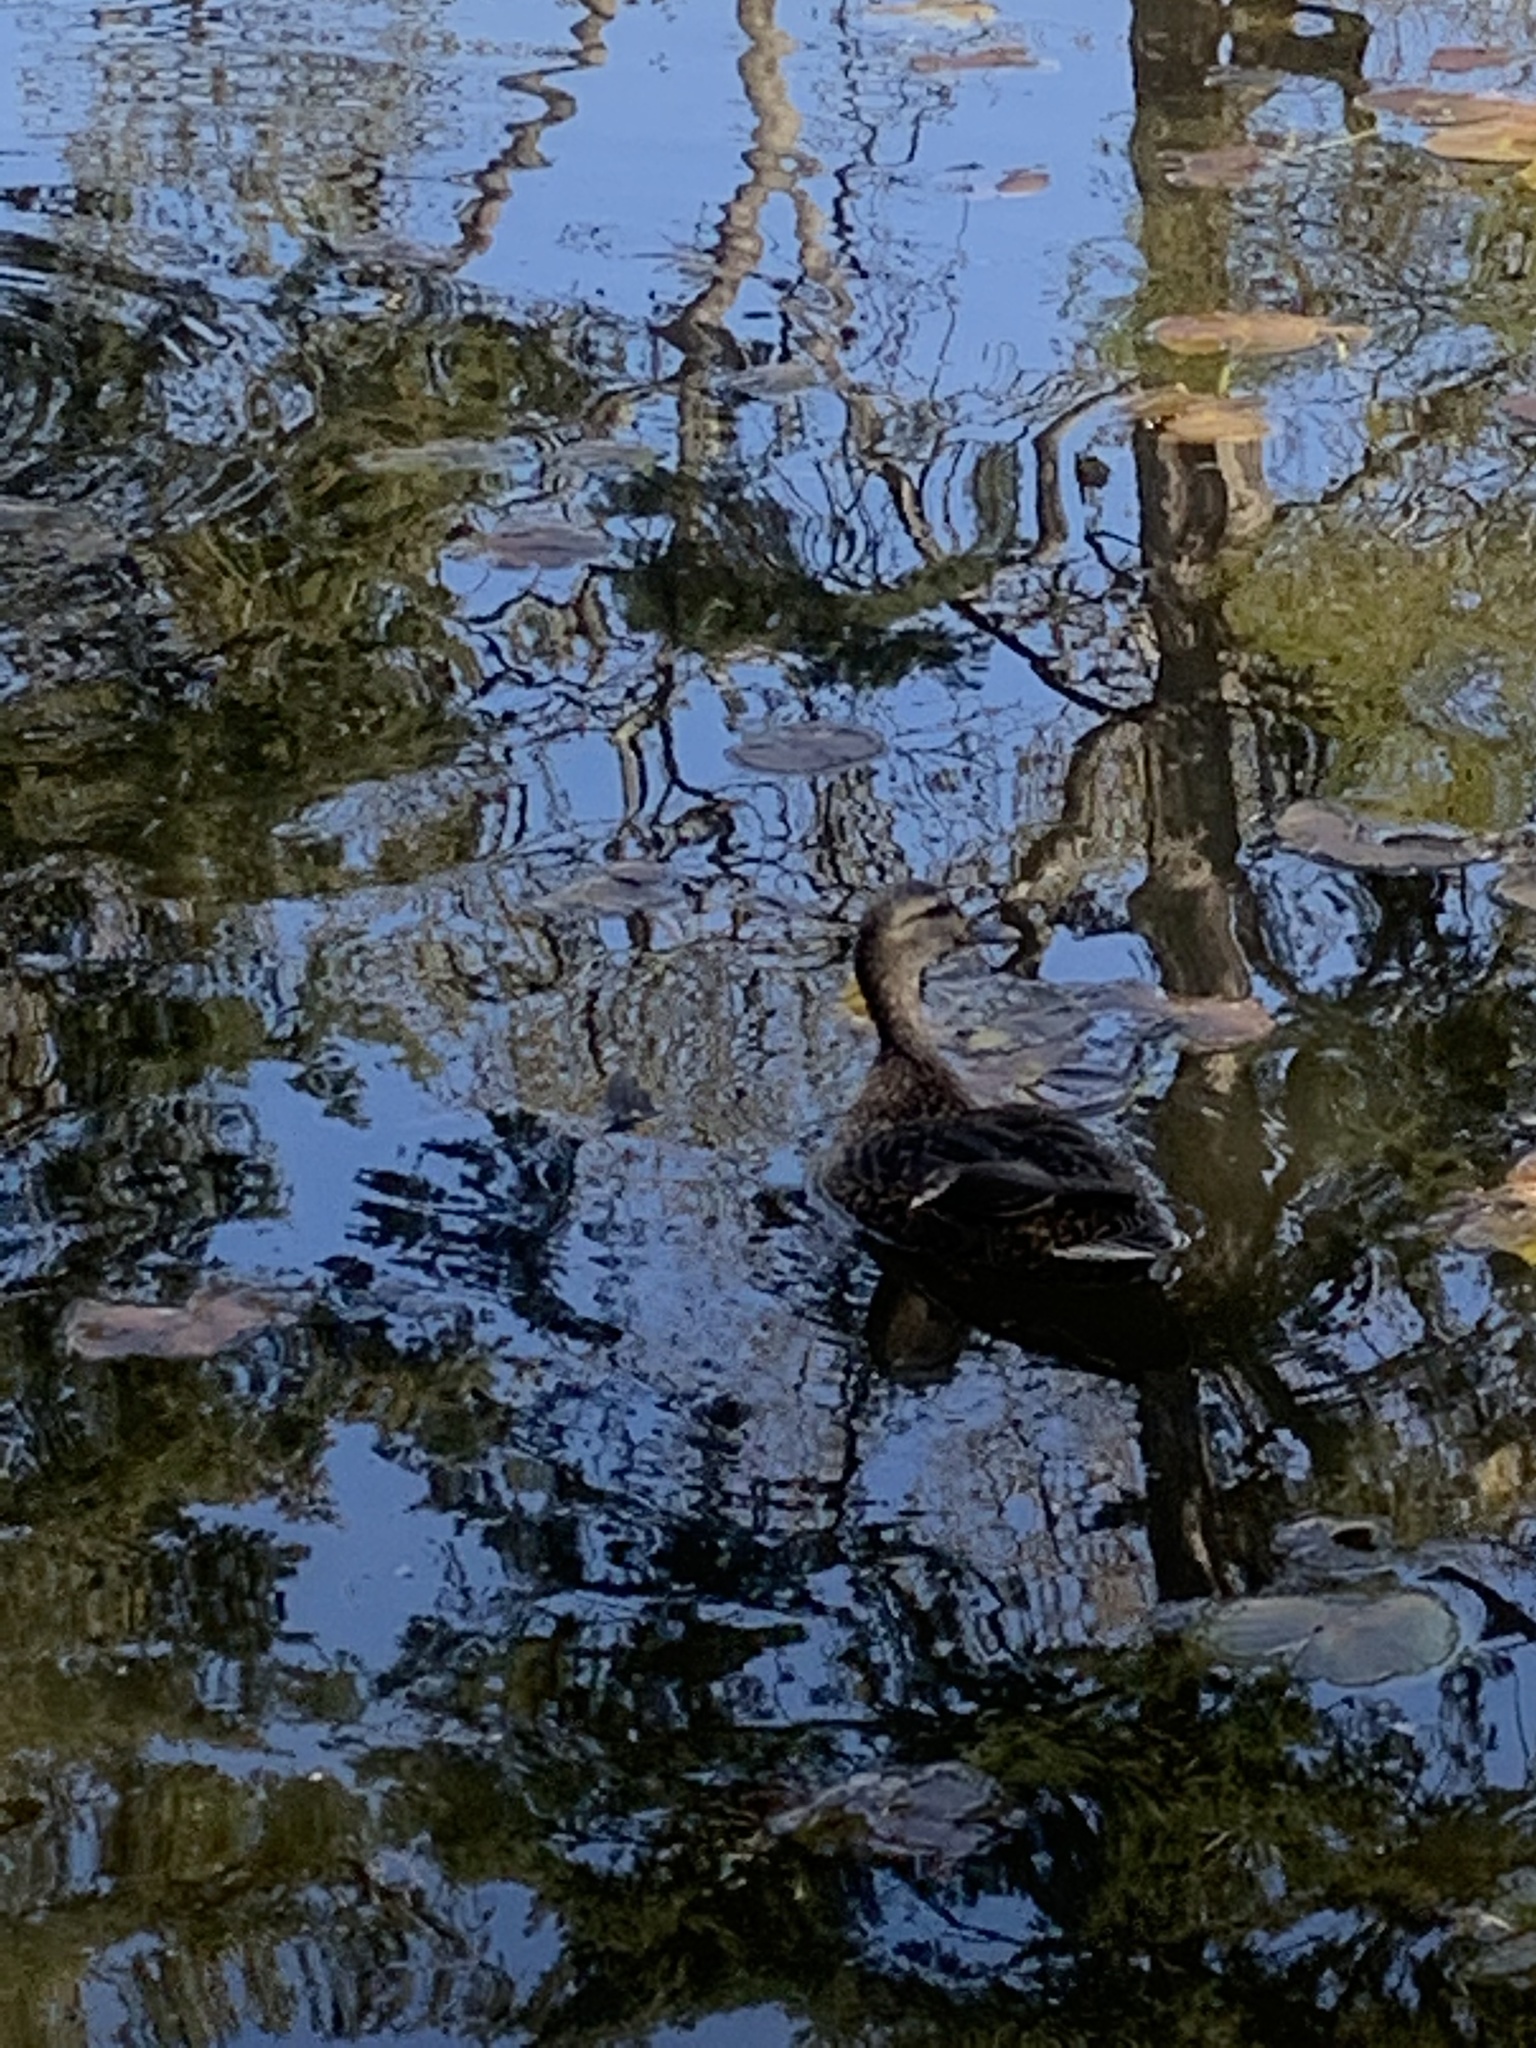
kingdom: Animalia
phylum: Chordata
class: Aves
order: Anseriformes
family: Anatidae
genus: Anas
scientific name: Anas platyrhynchos
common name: Mallard
